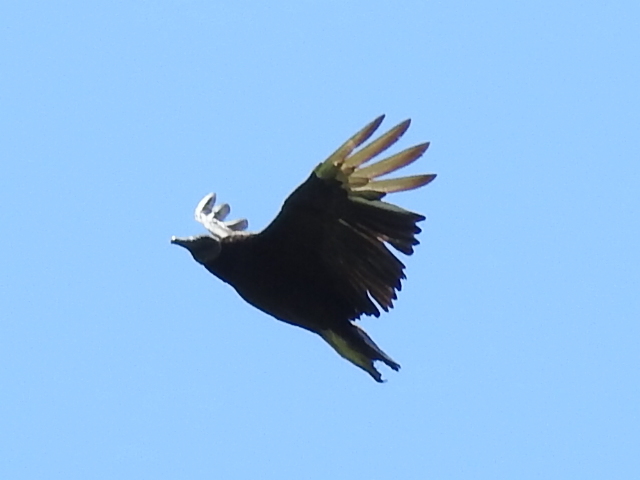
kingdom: Animalia
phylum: Chordata
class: Aves
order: Accipitriformes
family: Cathartidae
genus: Coragyps
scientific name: Coragyps atratus
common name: Black vulture
